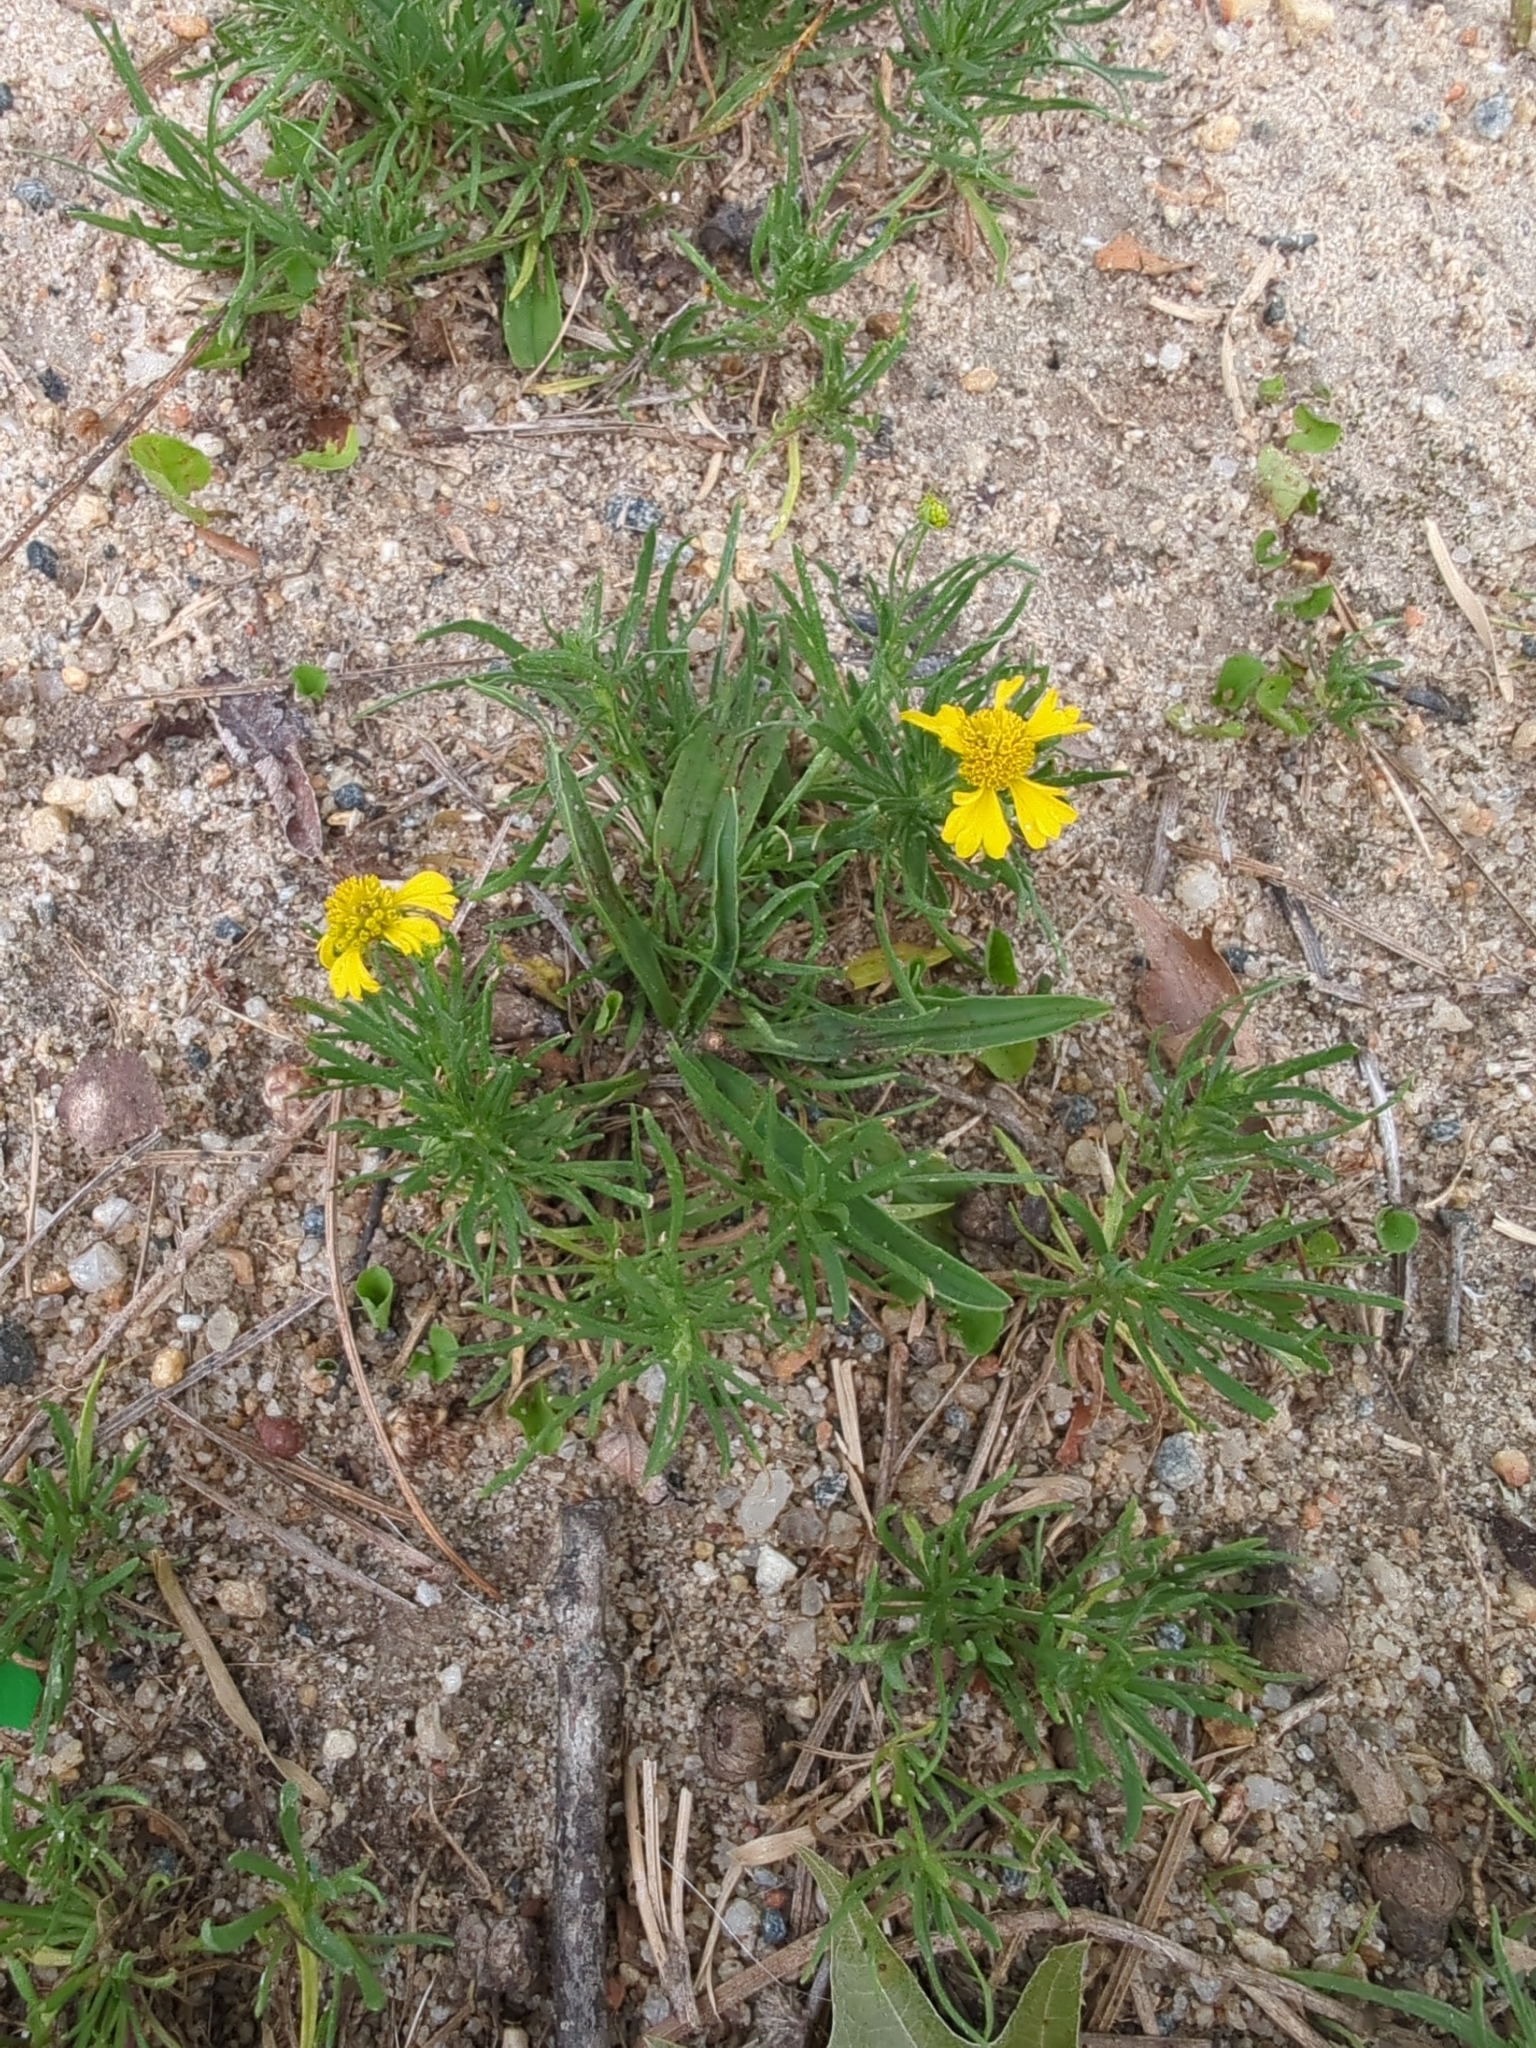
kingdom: Plantae
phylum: Tracheophyta
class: Magnoliopsida
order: Asterales
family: Asteraceae
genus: Helenium
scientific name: Helenium amarum
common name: Bitter sneezeweed
